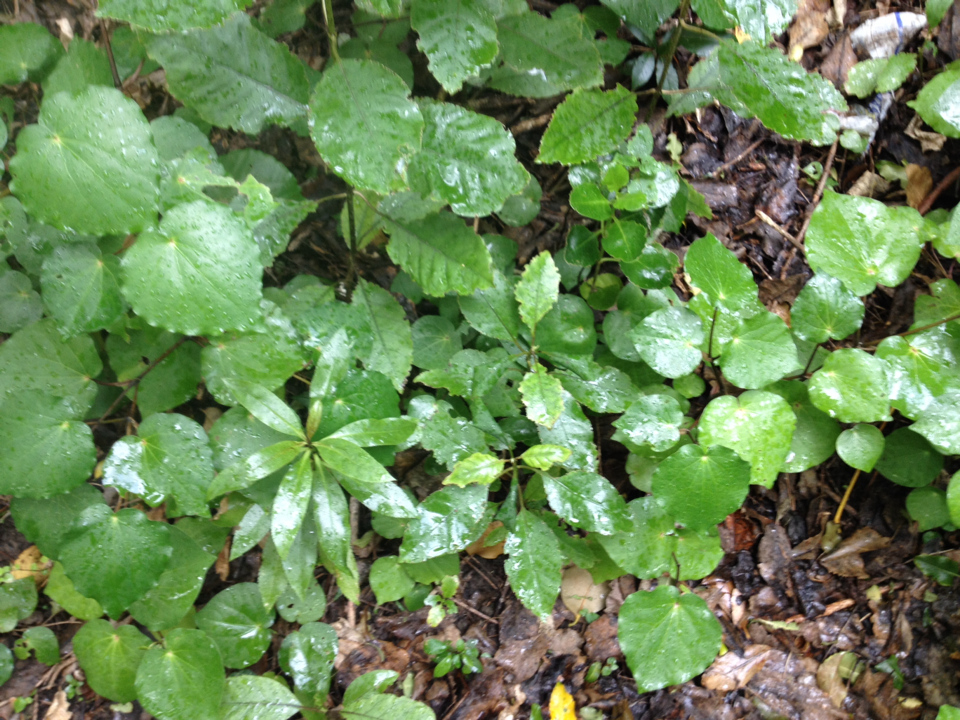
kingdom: Plantae
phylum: Tracheophyta
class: Magnoliopsida
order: Lamiales
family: Scrophulariaceae
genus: Myoporum
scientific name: Myoporum laetum
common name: Ngaio tree
